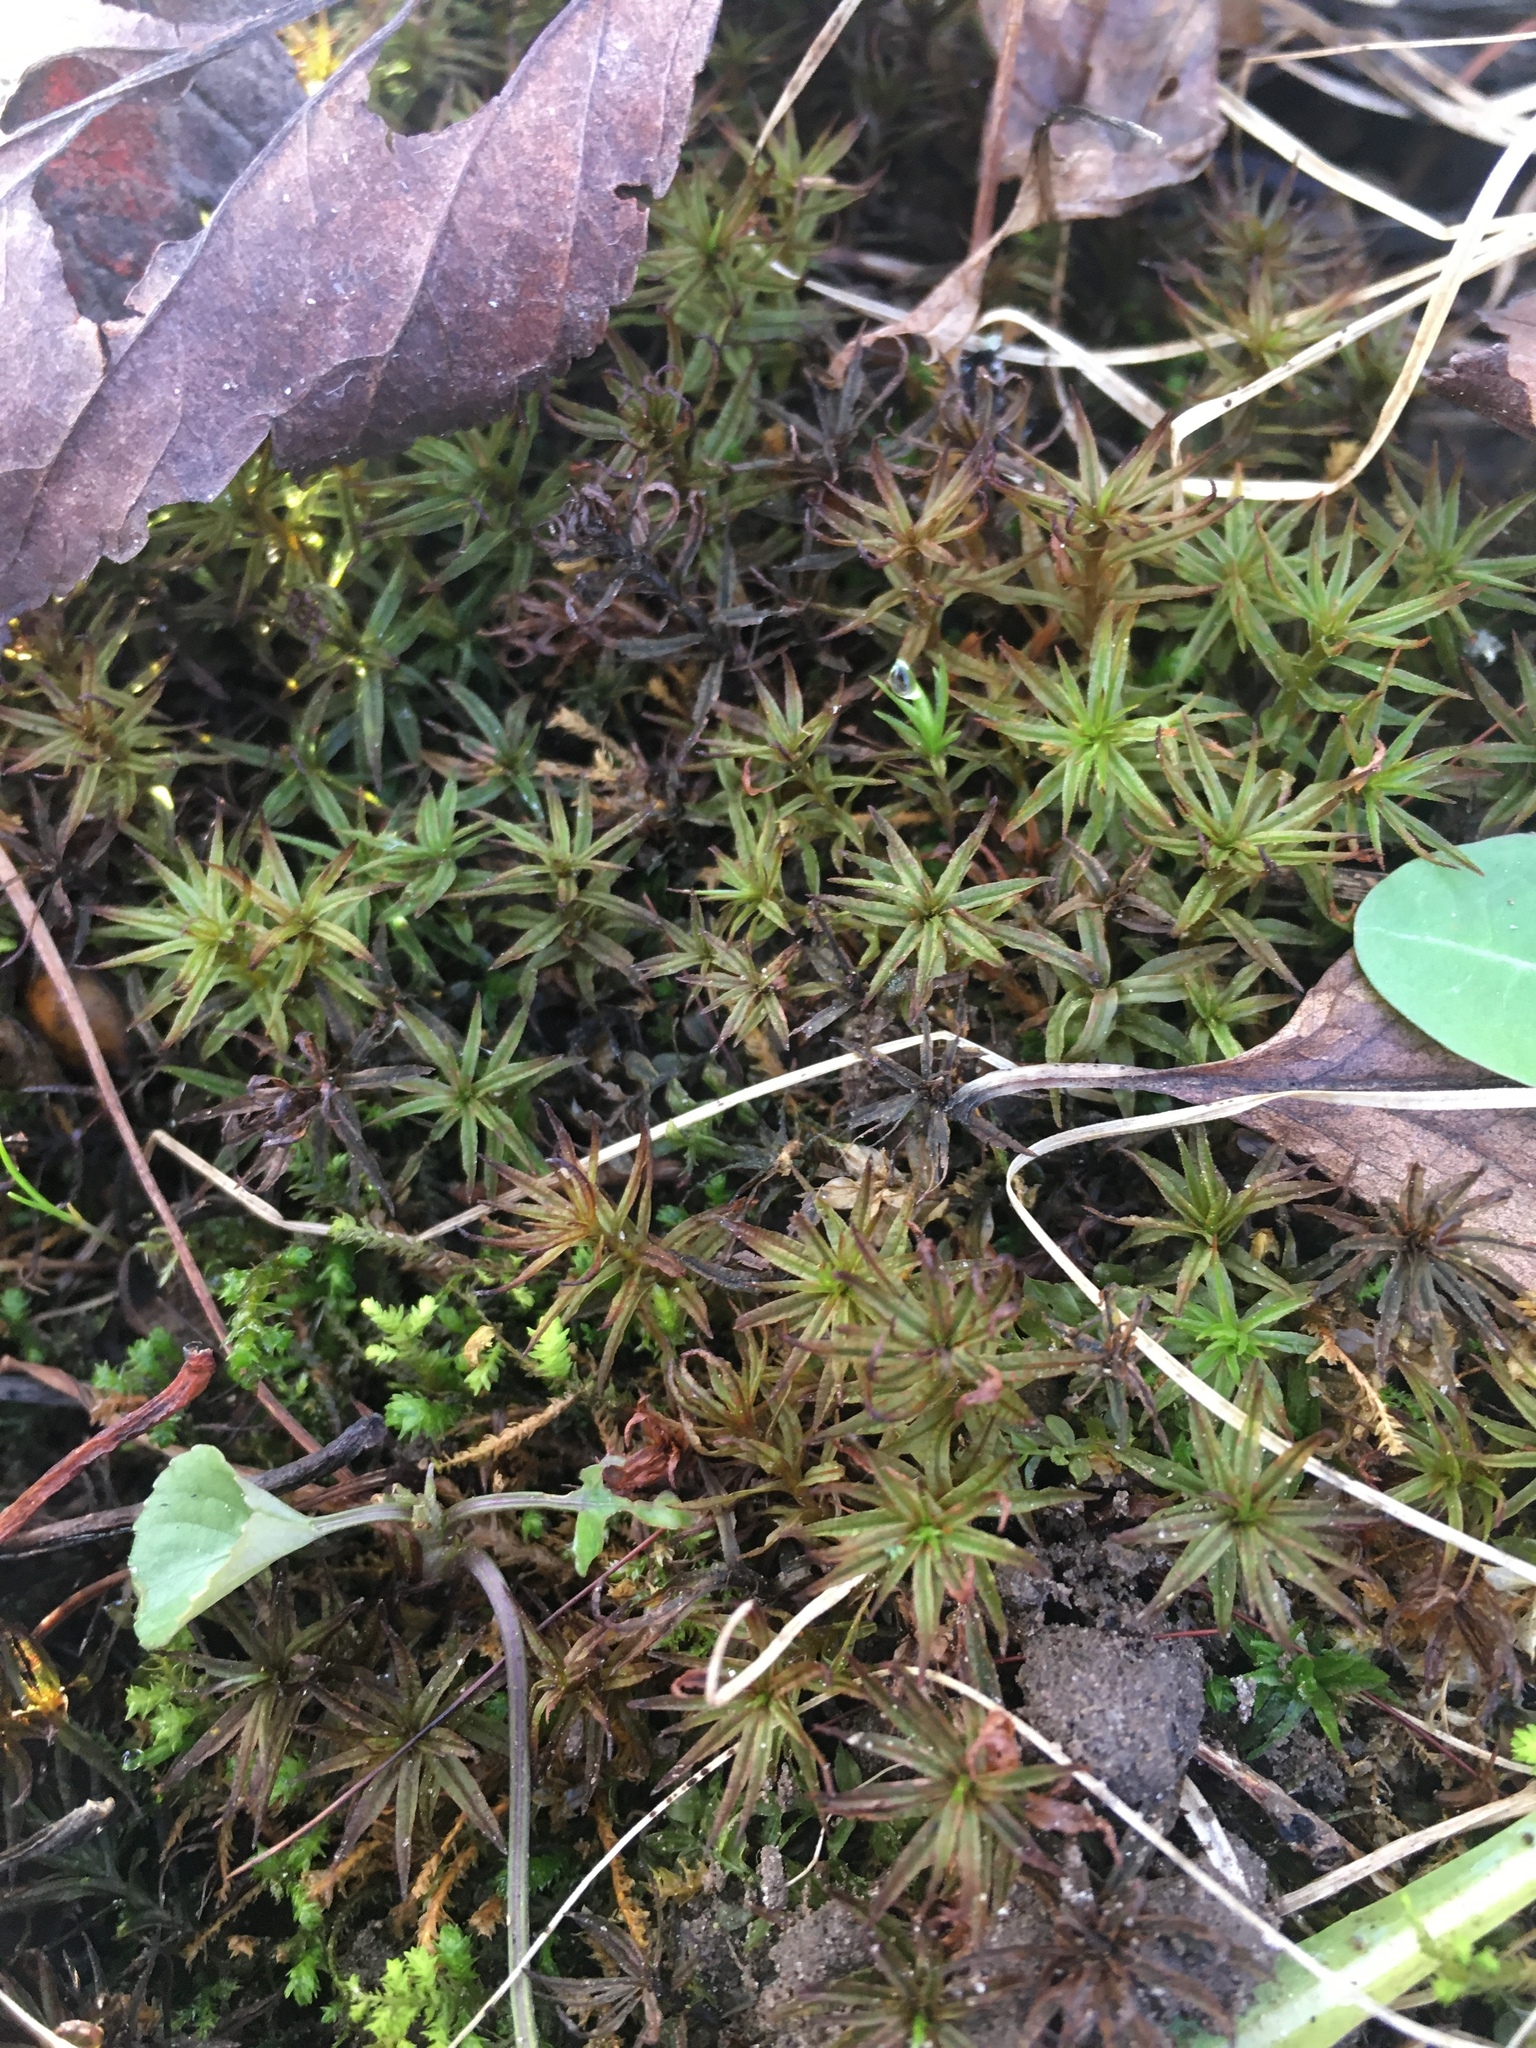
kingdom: Plantae
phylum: Bryophyta
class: Polytrichopsida
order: Polytrichales
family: Polytrichaceae
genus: Atrichum
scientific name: Atrichum angustatum
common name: Lesser smoothcap
